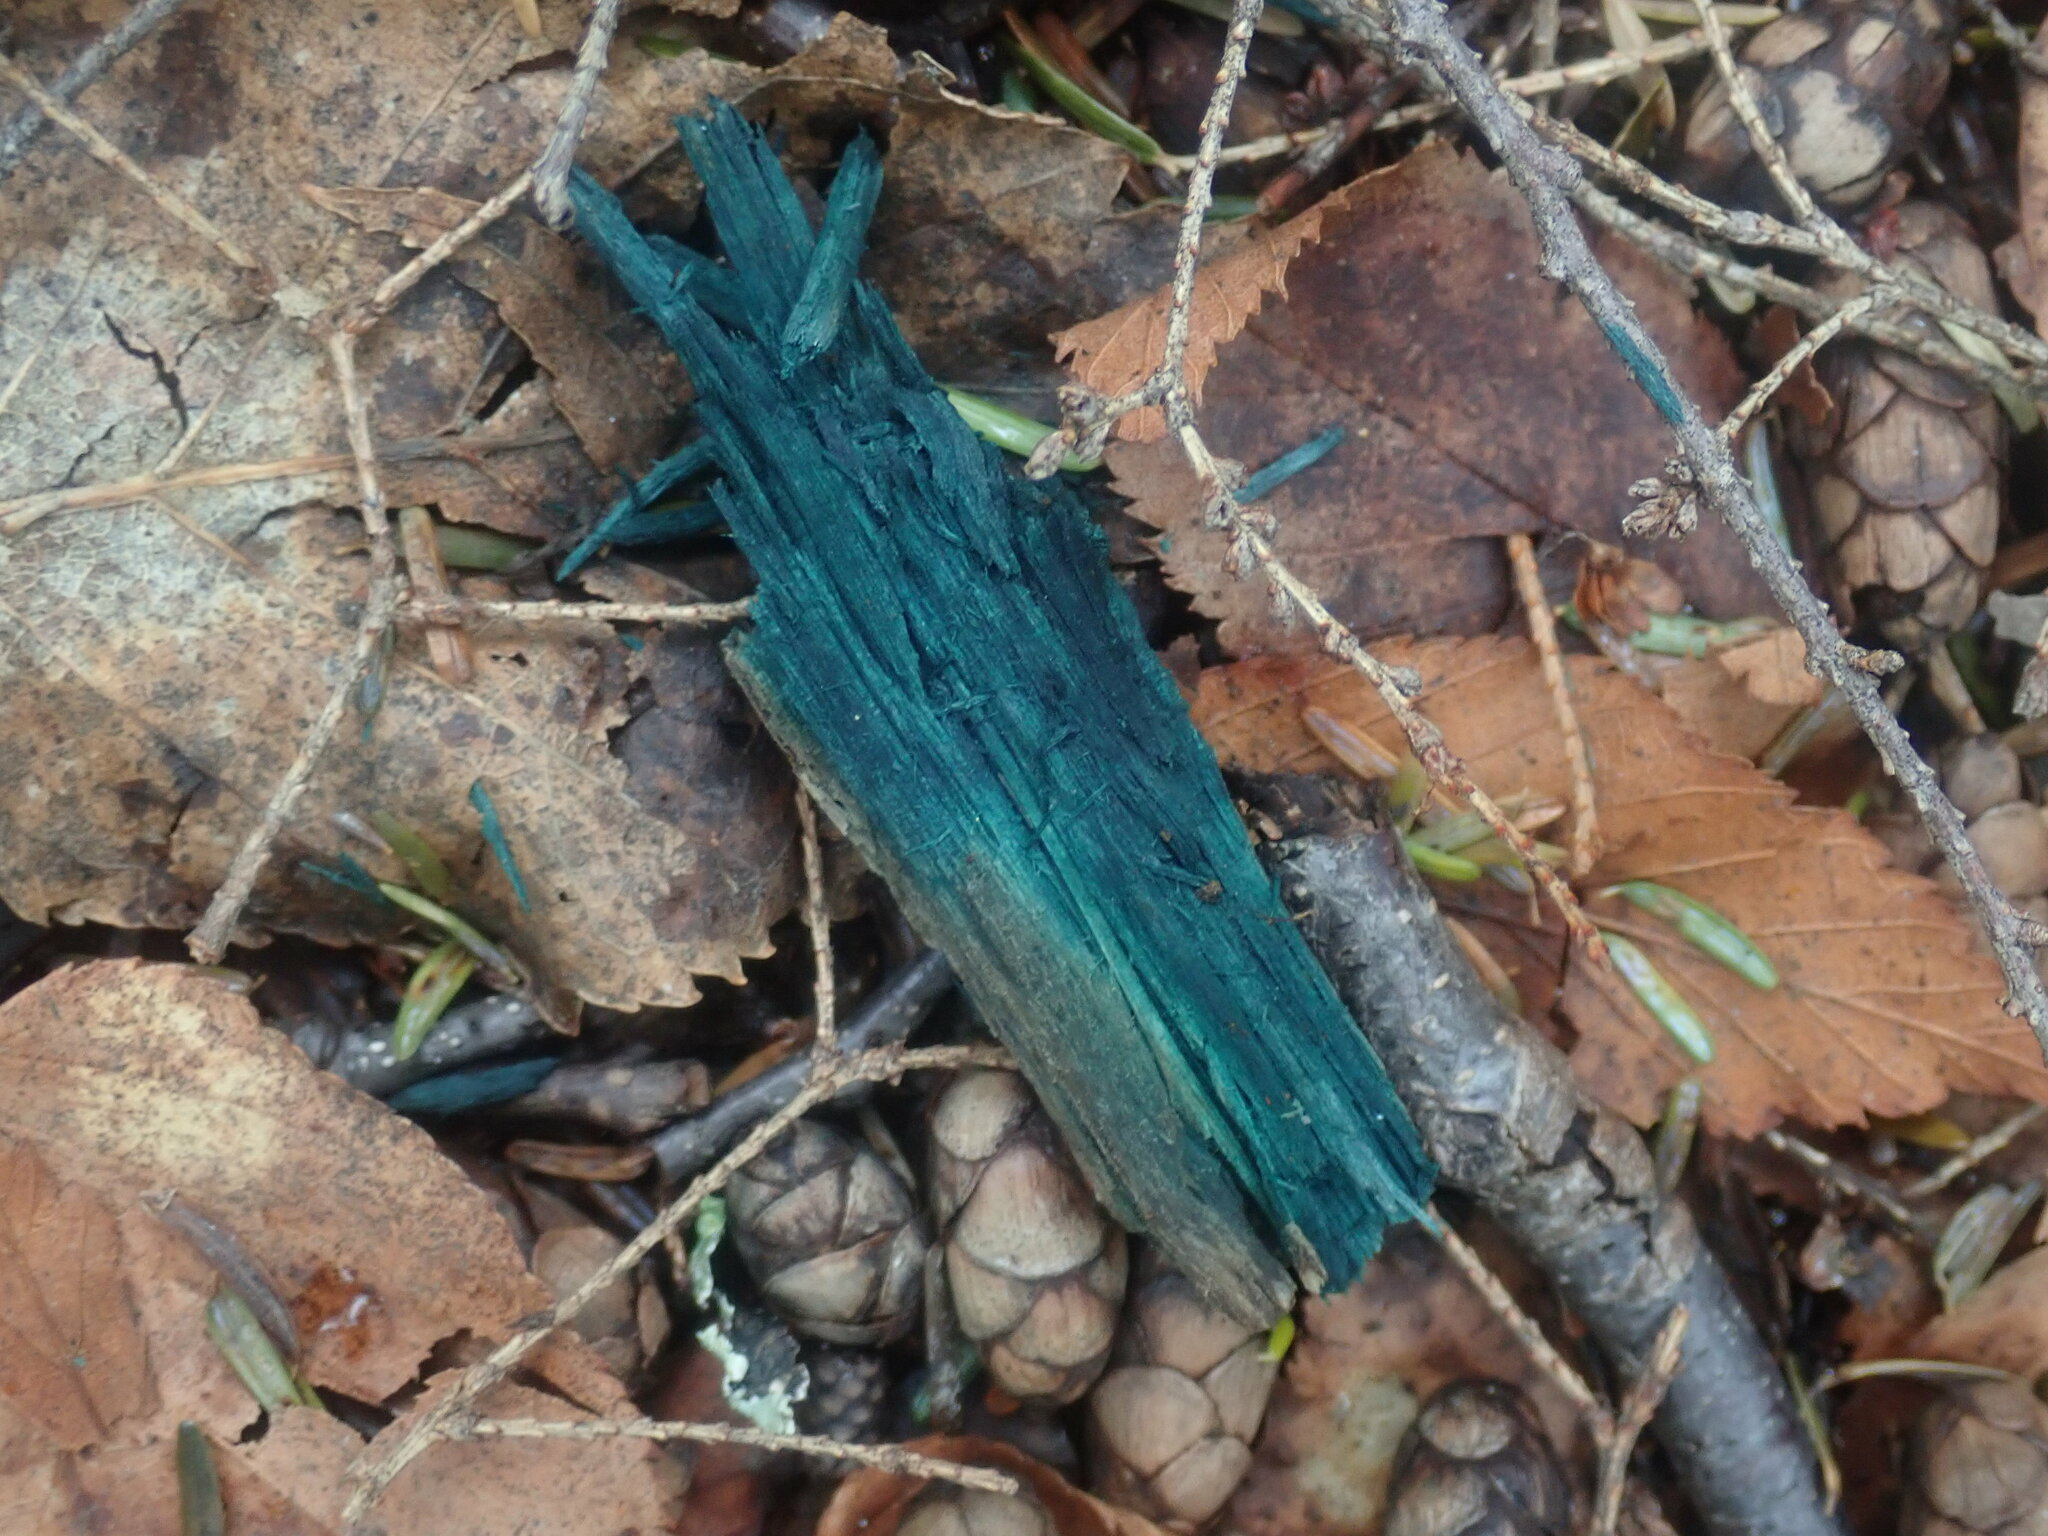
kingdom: Fungi
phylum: Ascomycota
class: Leotiomycetes
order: Helotiales
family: Chlorociboriaceae
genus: Chlorociboria
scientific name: Chlorociboria
